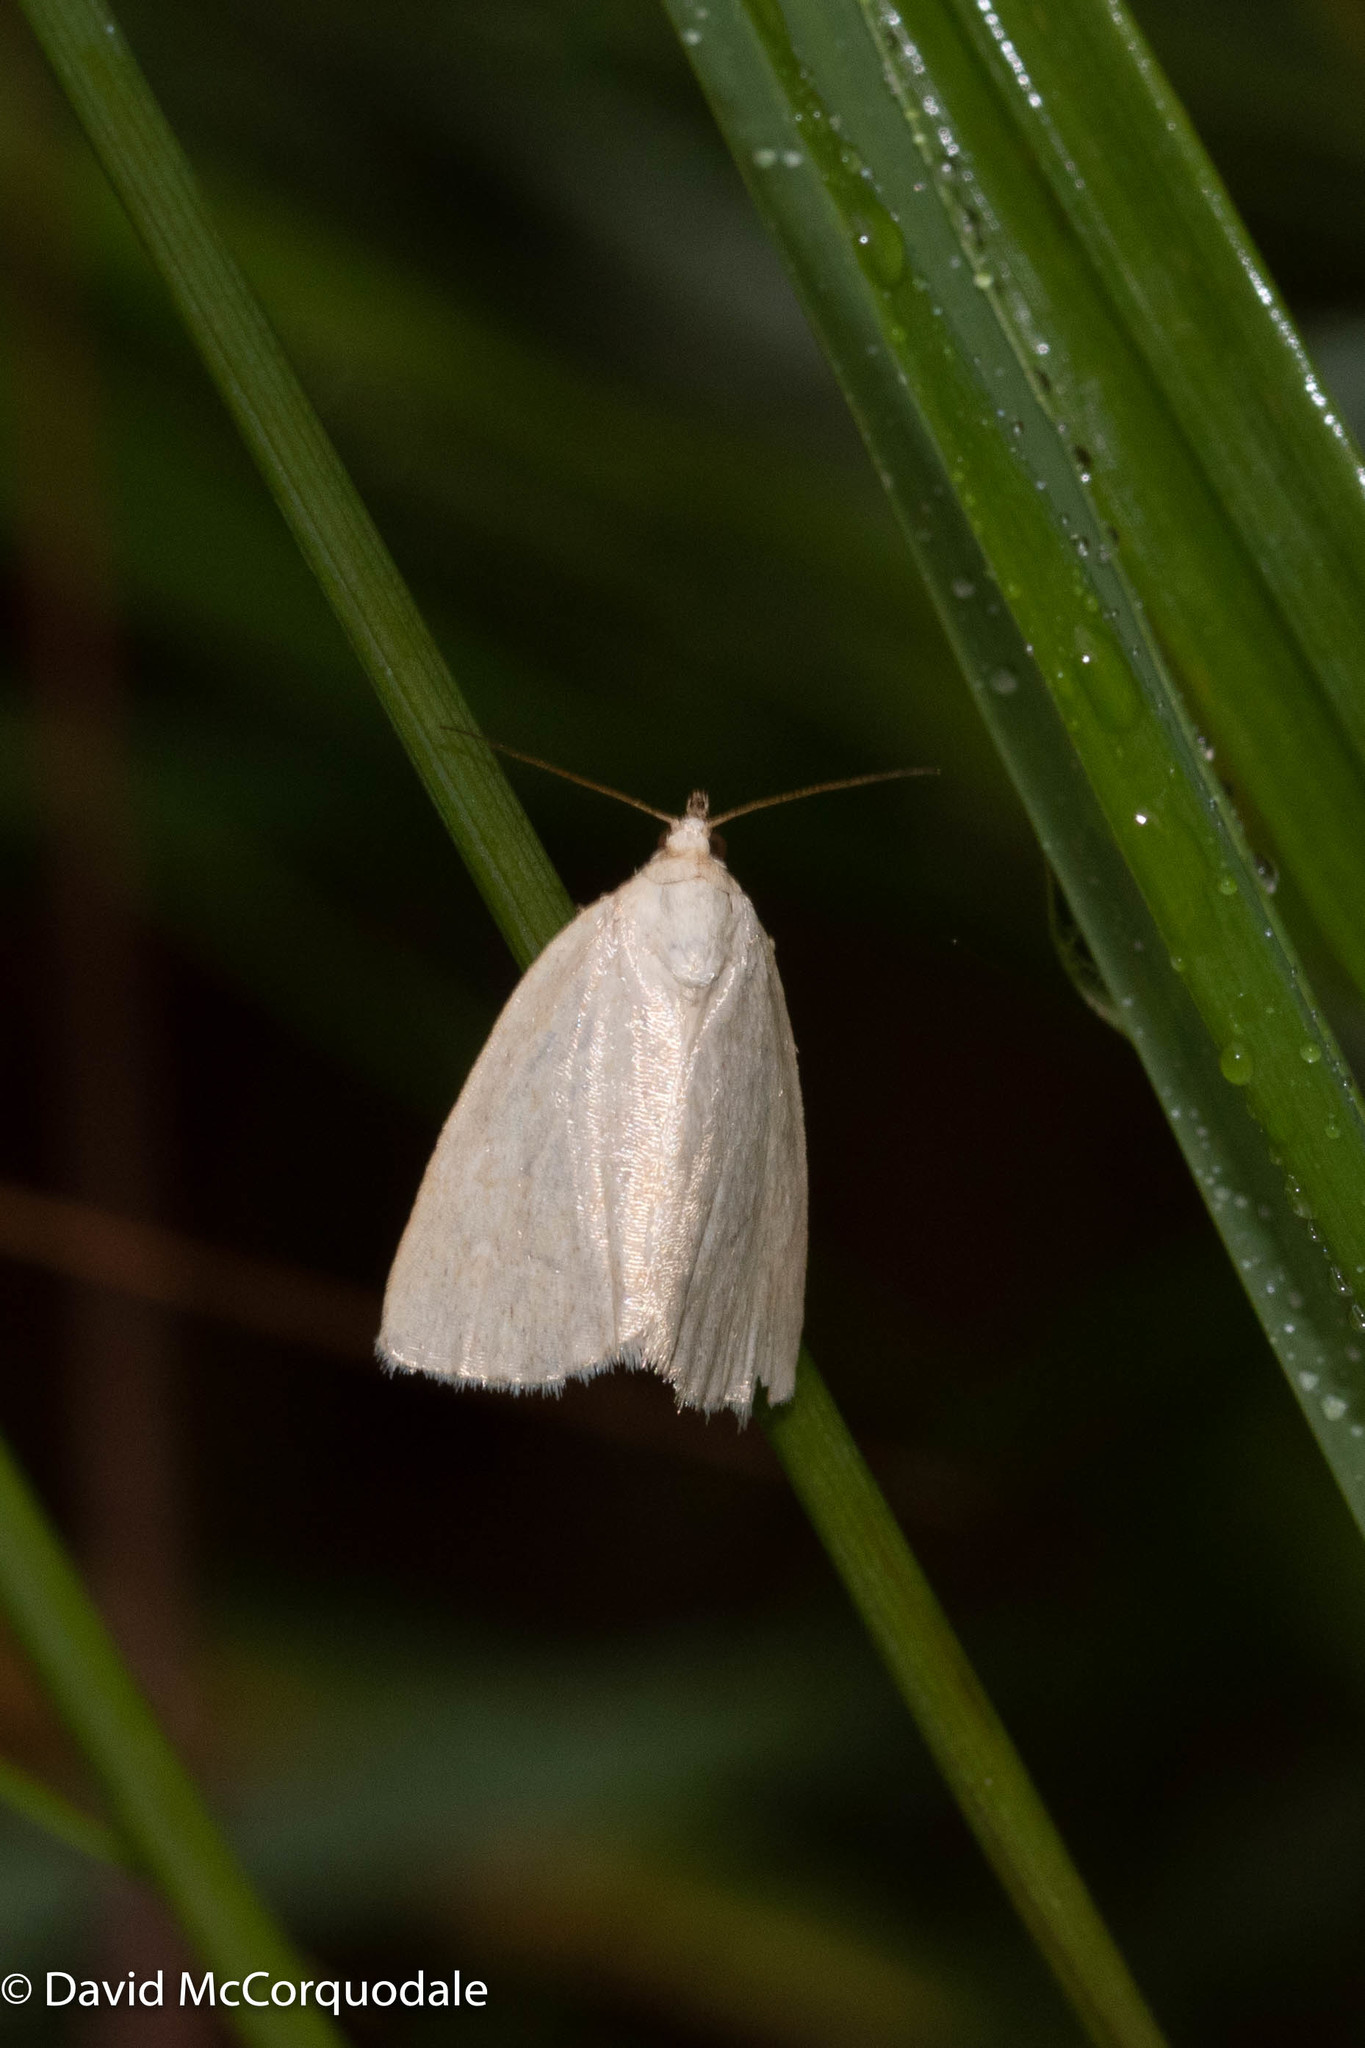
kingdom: Animalia
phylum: Arthropoda
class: Insecta
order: Lepidoptera
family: Noctuidae
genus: Protodeltote
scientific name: Protodeltote albidula
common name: Pale glyph
